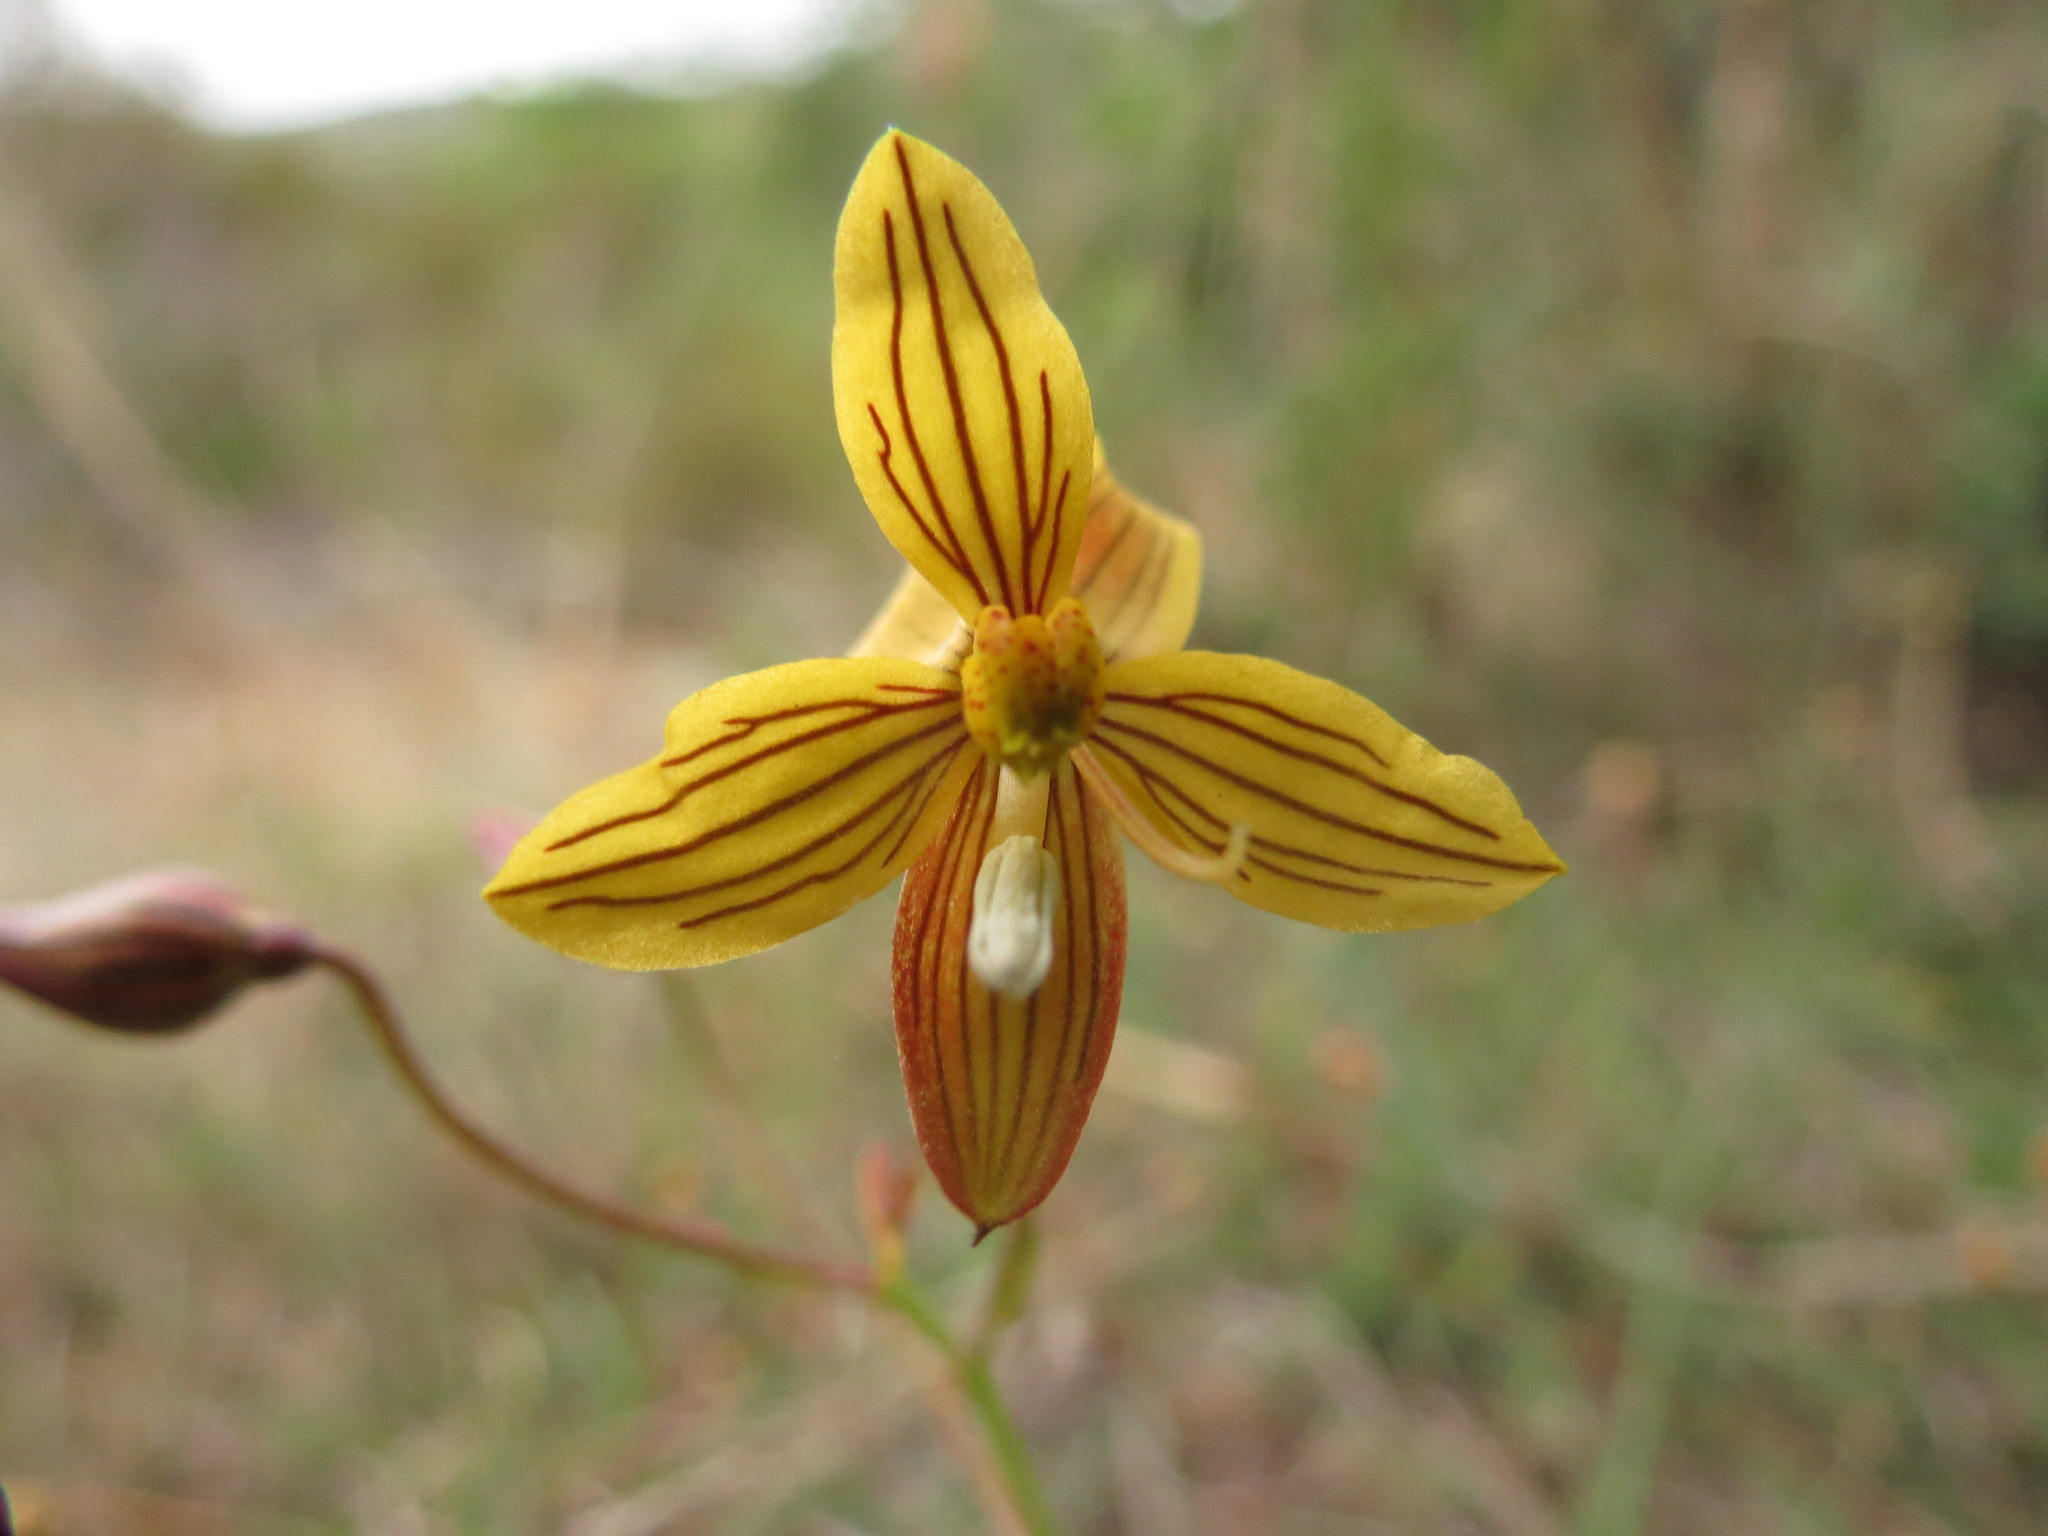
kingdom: Plantae
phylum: Tracheophyta
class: Liliopsida
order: Asparagales
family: Tecophilaeaceae
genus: Cyanella
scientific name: Cyanella lutea
